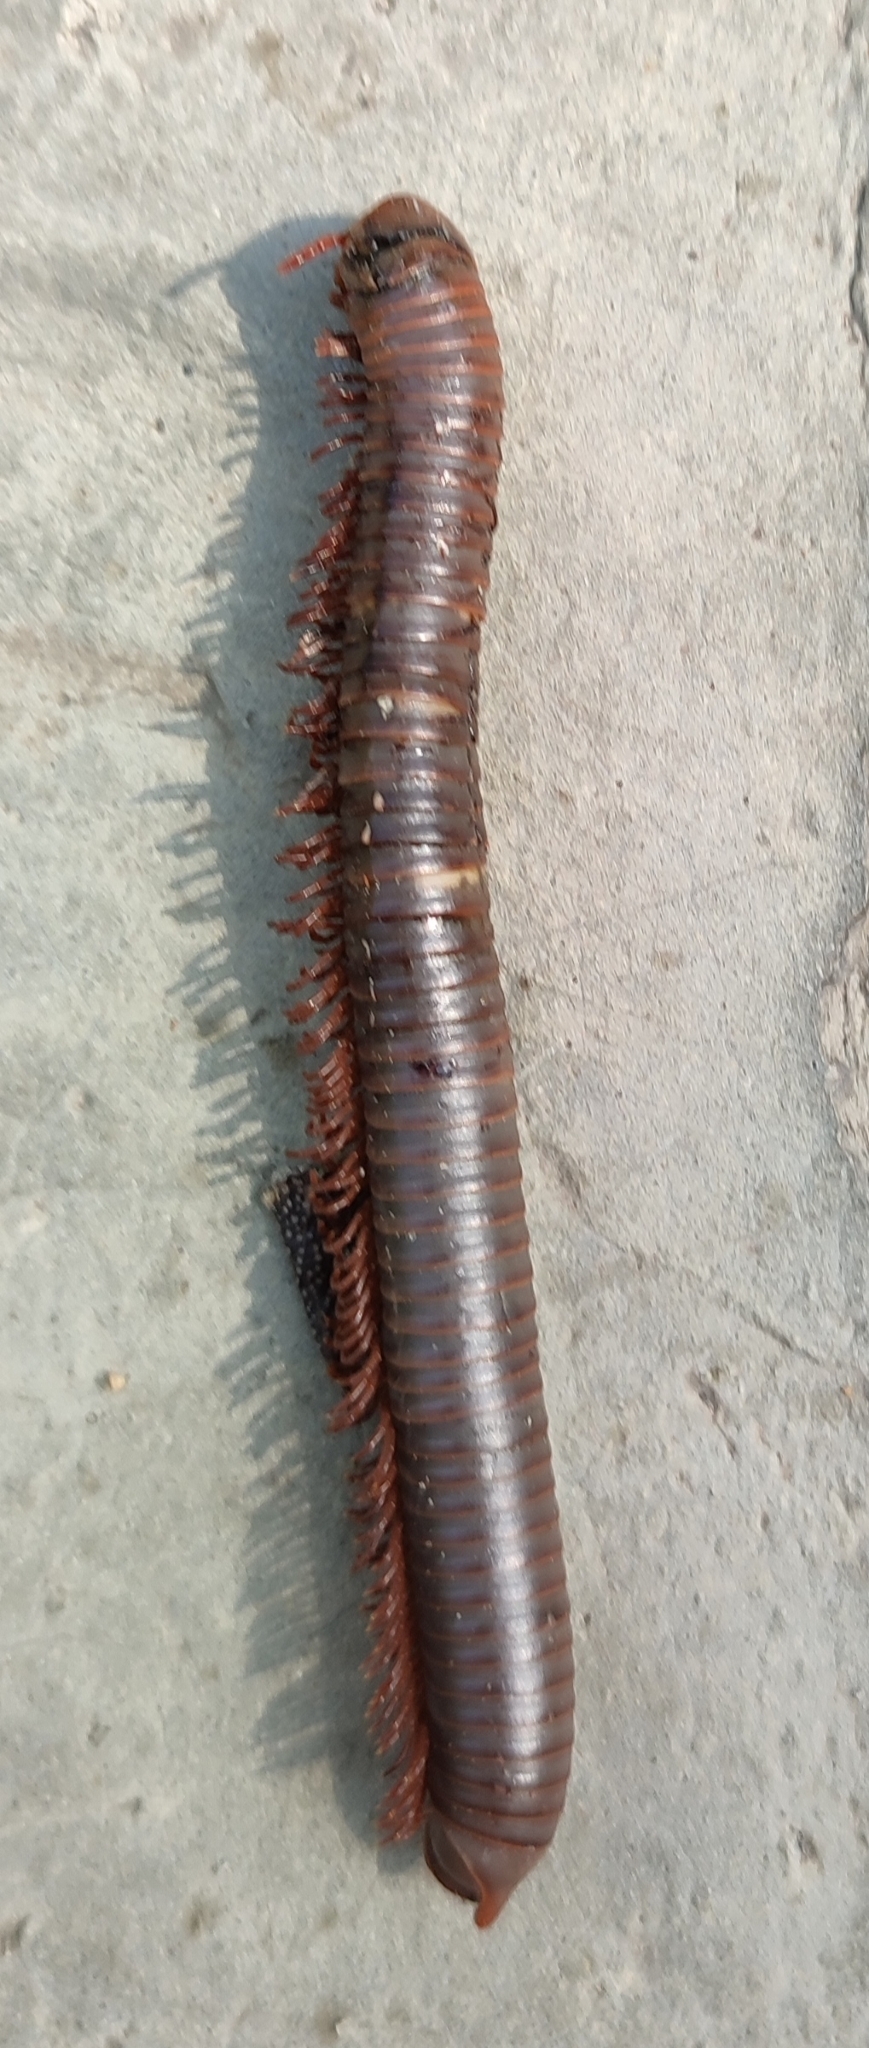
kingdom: Animalia
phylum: Arthropoda
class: Diplopoda
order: Spirobolida
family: Pachybolidae
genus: Trigoniulus
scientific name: Trigoniulus corallinus
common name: Millipede
